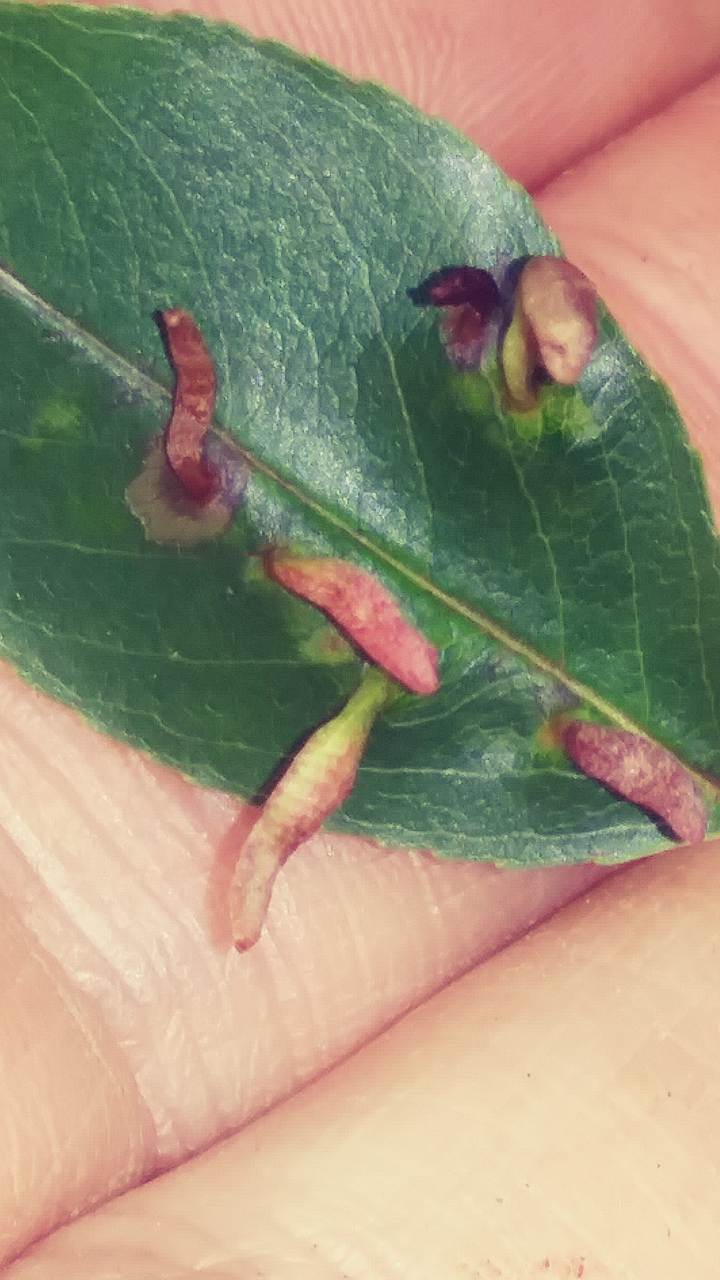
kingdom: Animalia
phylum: Arthropoda
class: Arachnida
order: Trombidiformes
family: Eriophyidae
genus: Eriophyes
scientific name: Eriophyes
